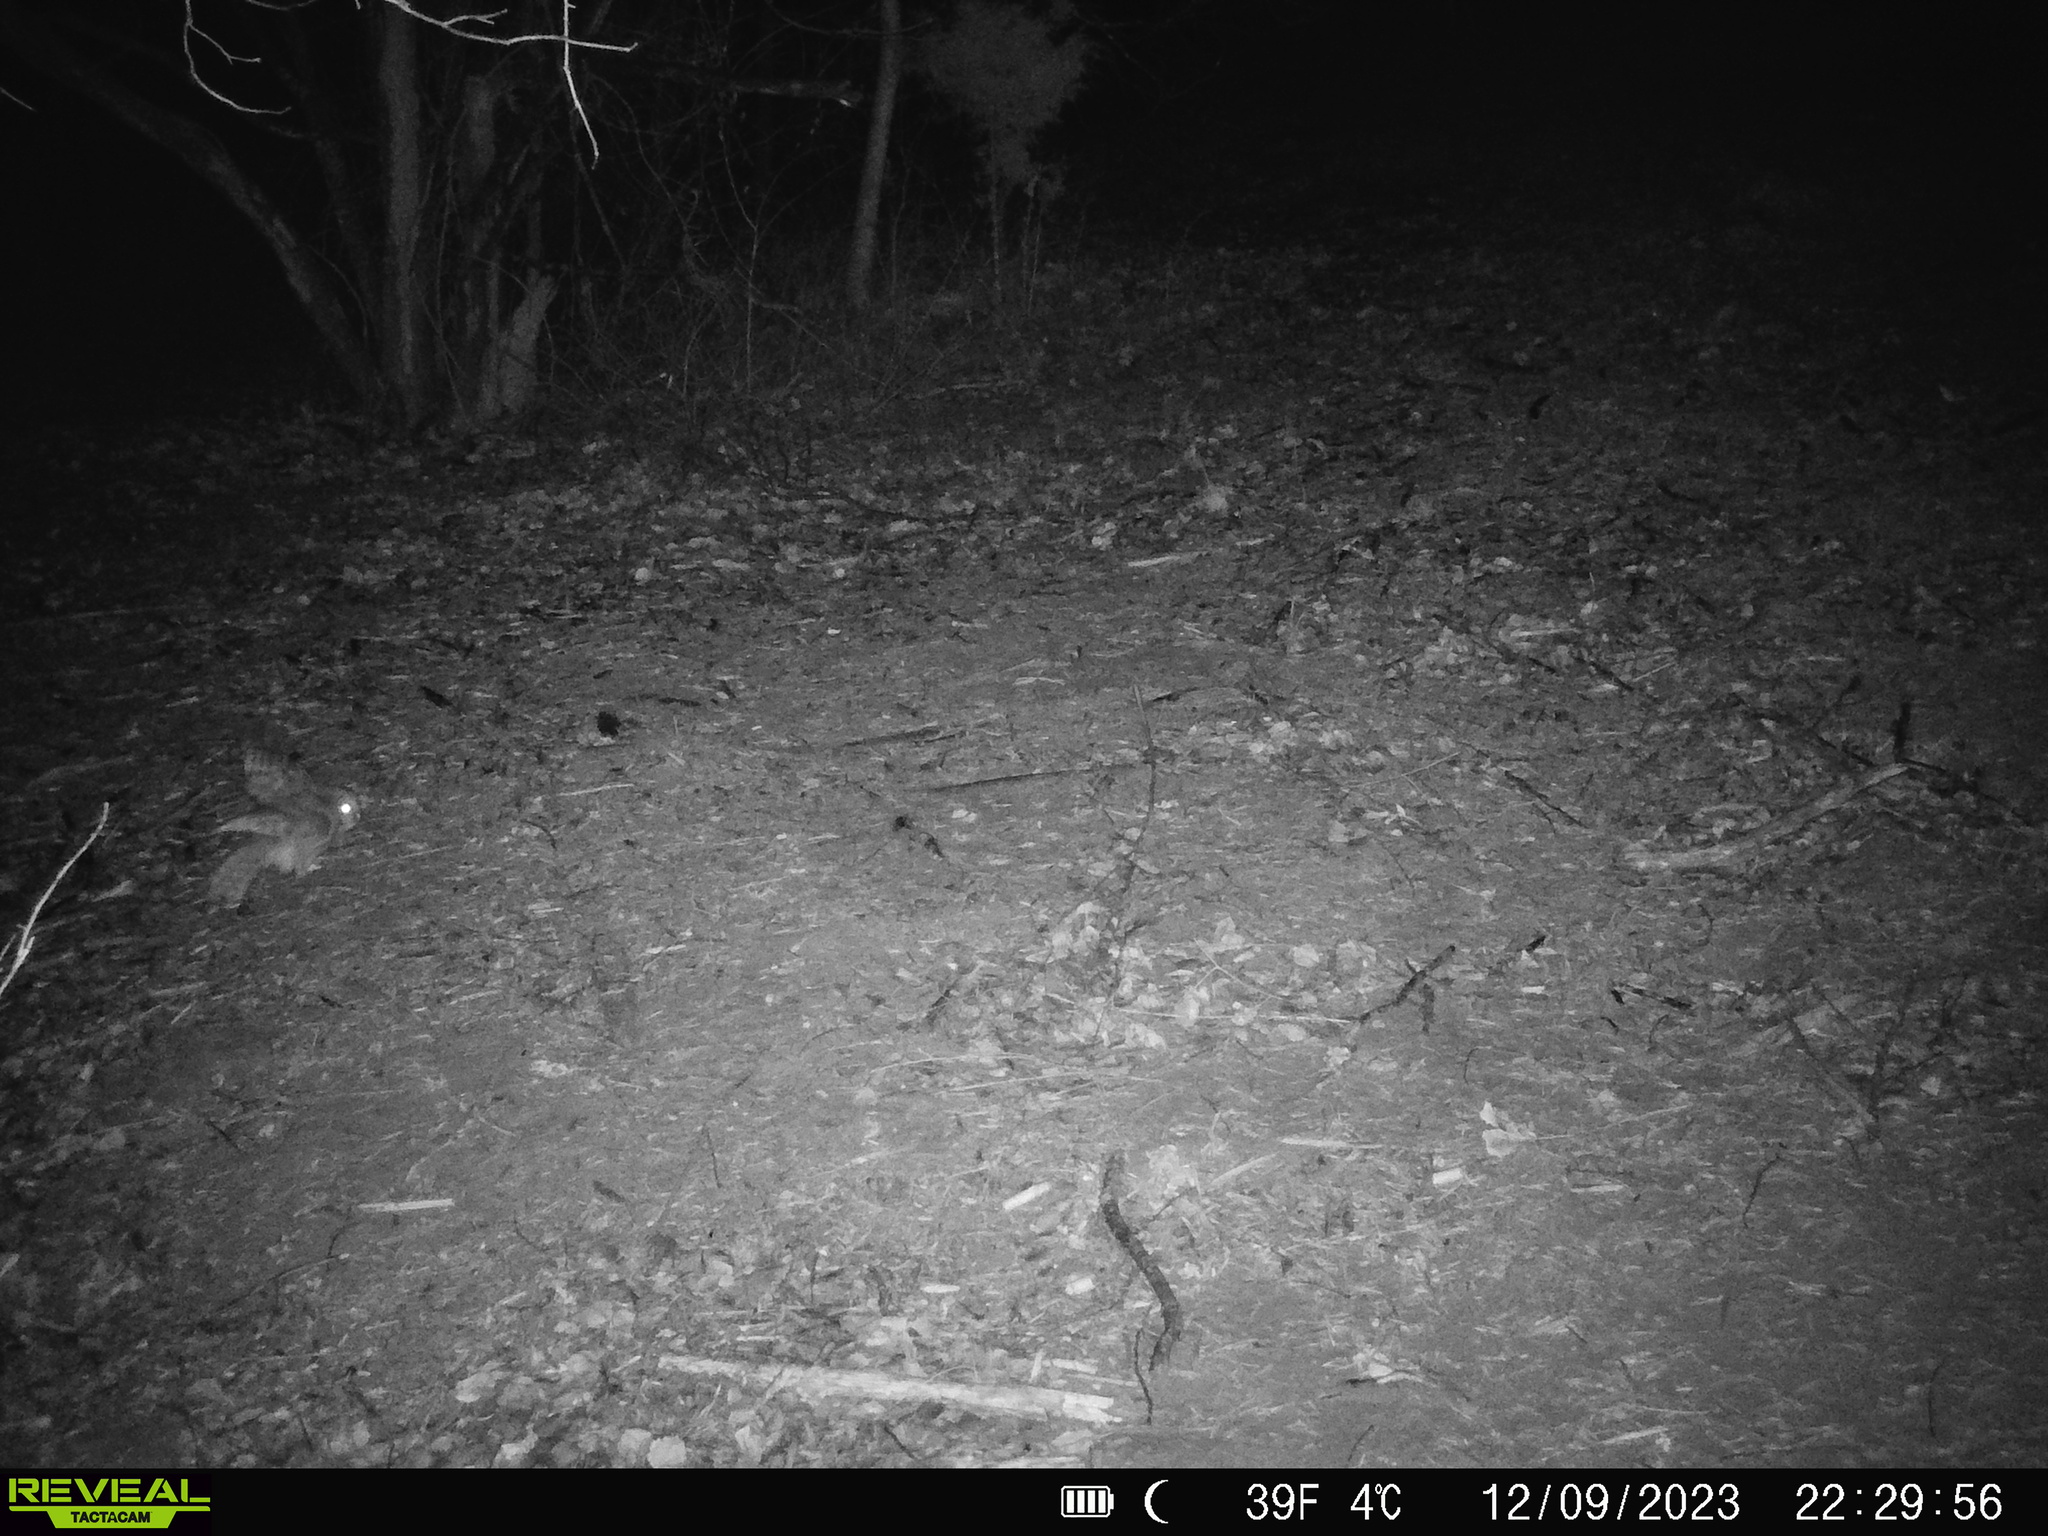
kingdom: Animalia
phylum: Chordata
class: Aves
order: Strigiformes
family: Strigidae
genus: Strix
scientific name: Strix varia
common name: Barred owl
